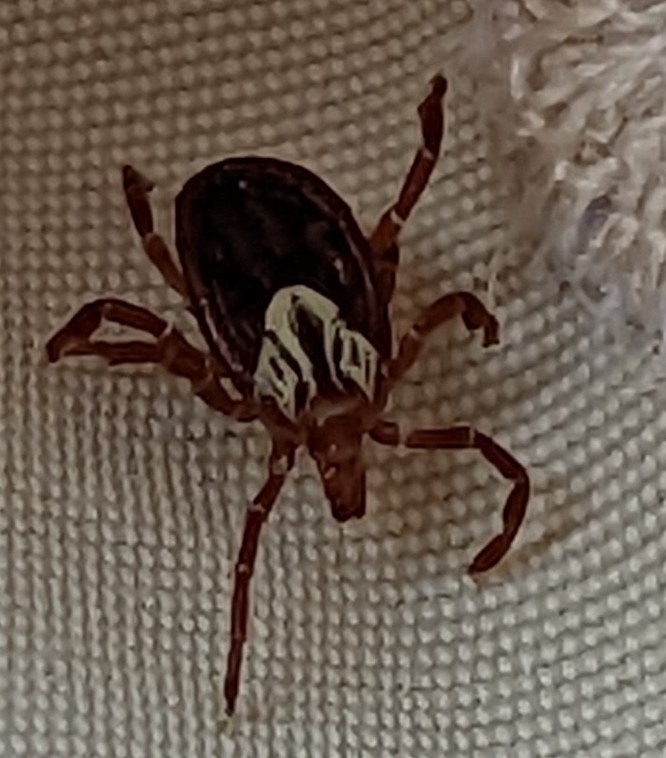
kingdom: Animalia
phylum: Arthropoda
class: Arachnida
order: Ixodida
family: Ixodidae
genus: Amblyomma
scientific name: Amblyomma maculatum
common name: Gulf coast tick
